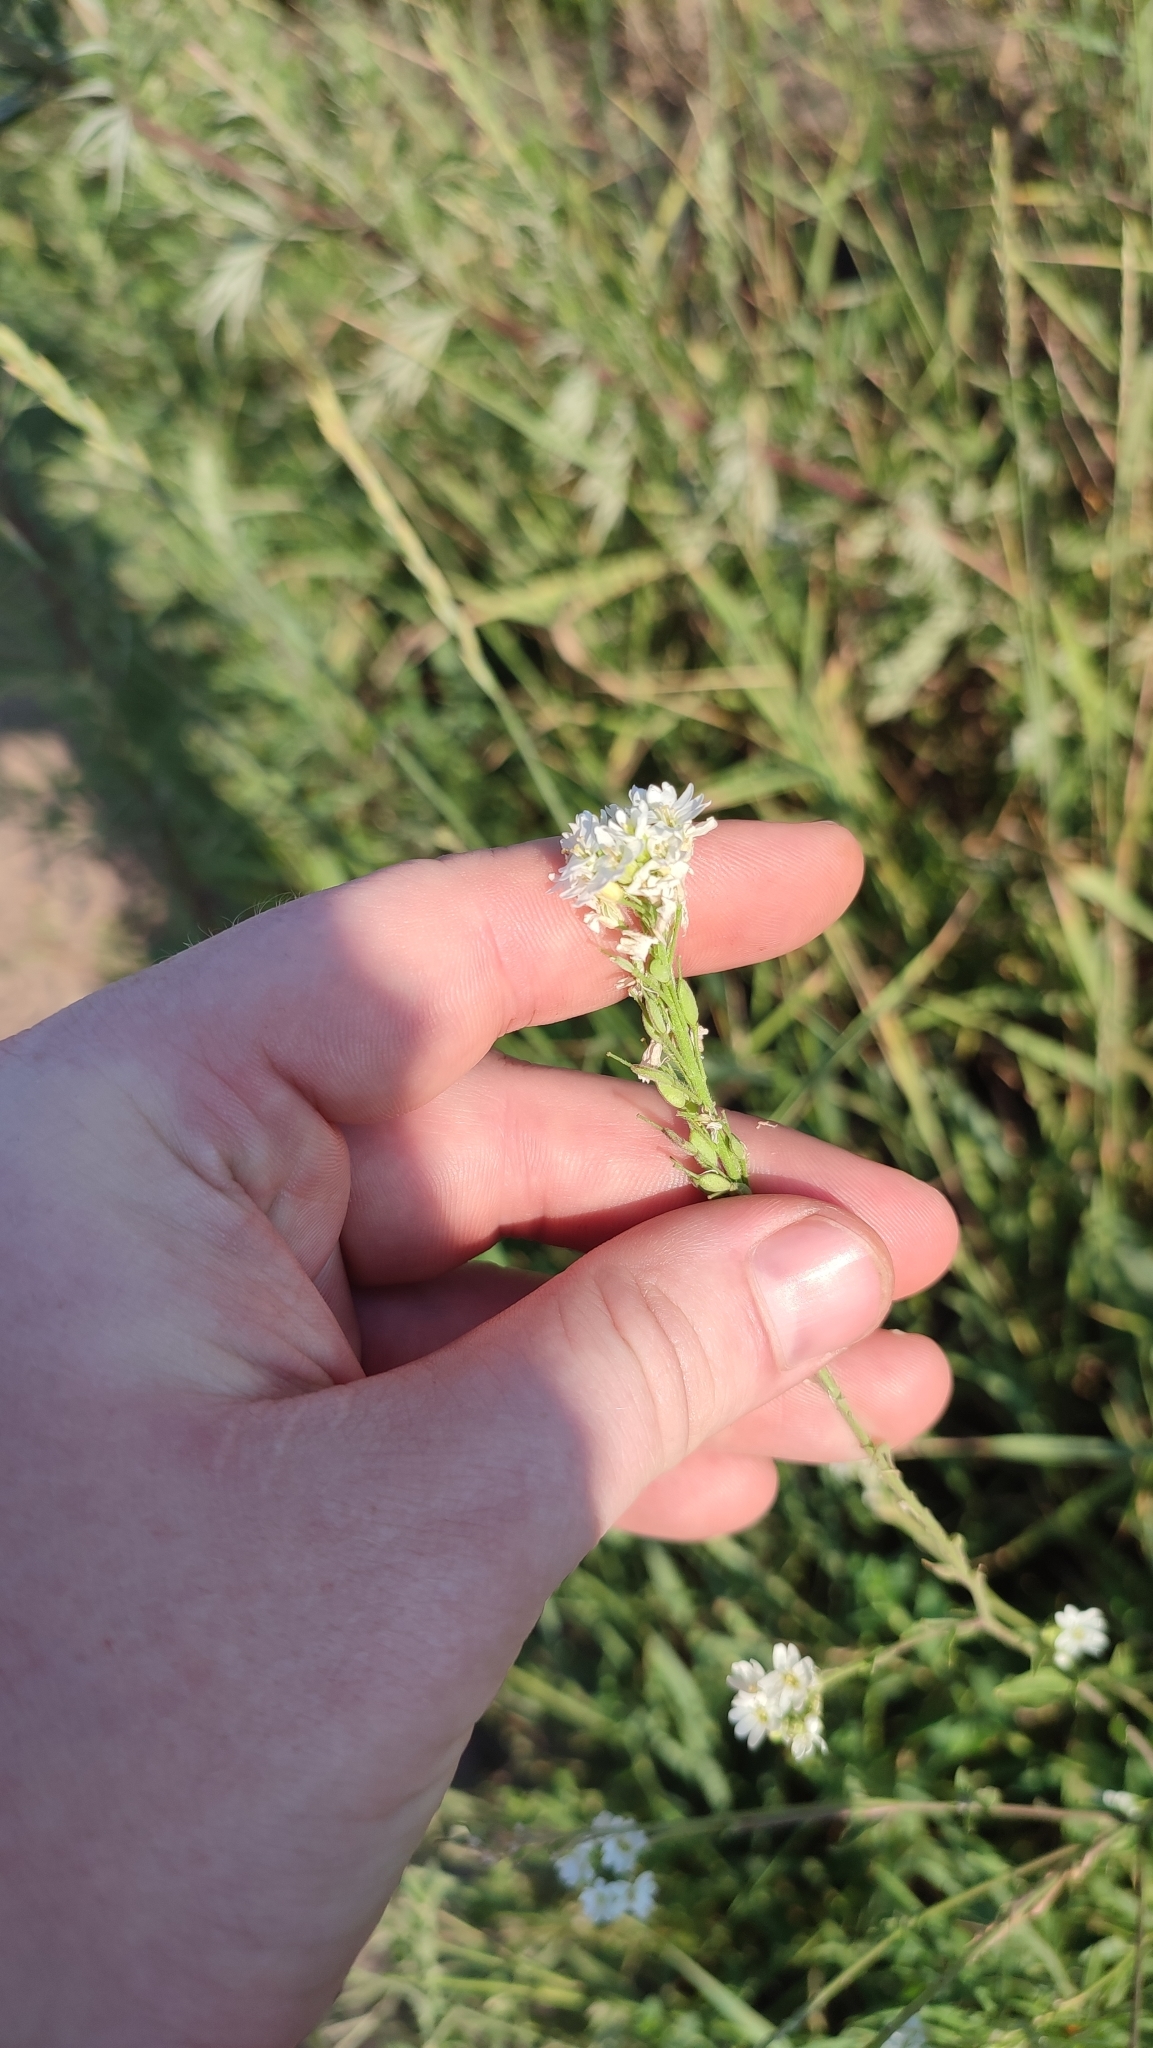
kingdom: Plantae
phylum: Tracheophyta
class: Magnoliopsida
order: Brassicales
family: Brassicaceae
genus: Berteroa
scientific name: Berteroa incana
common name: Hoary alison
